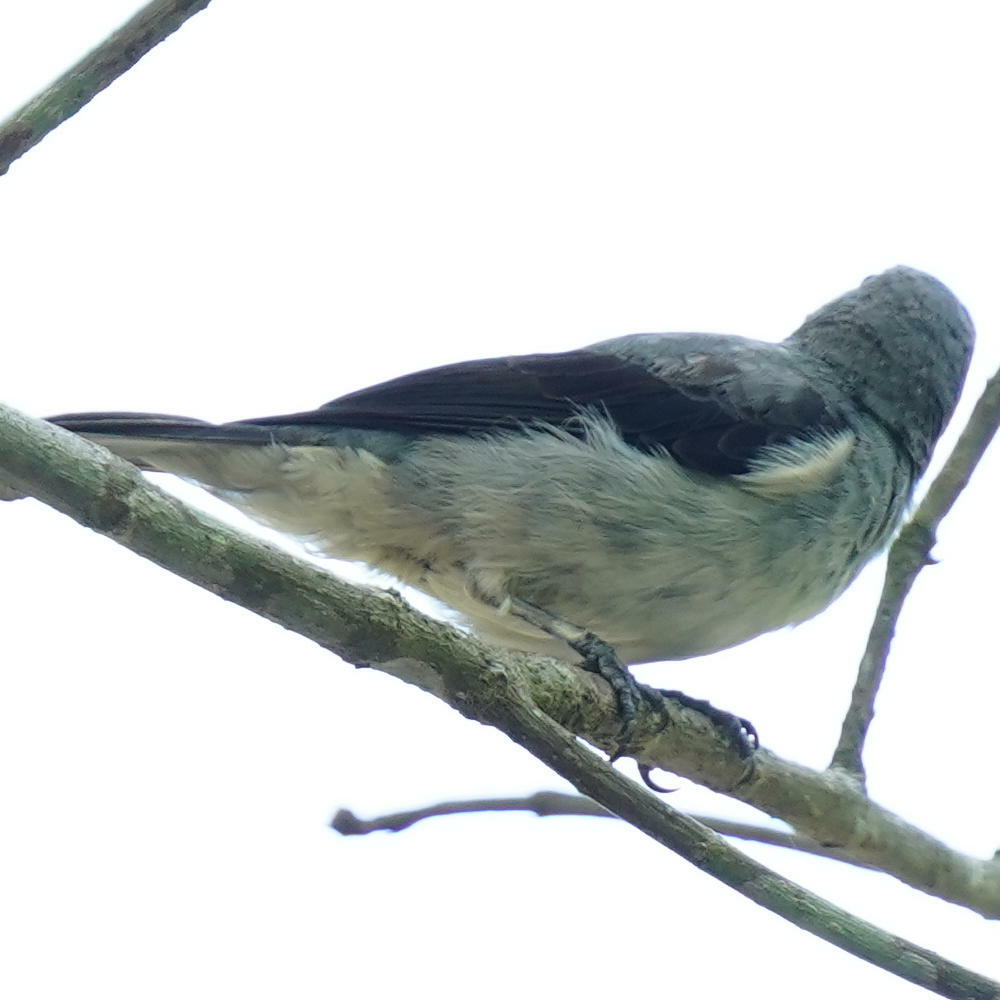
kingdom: Animalia
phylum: Chordata
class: Aves
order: Passeriformes
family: Thraupidae
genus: Tangara
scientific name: Tangara inornata
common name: Plain-colored tanager
